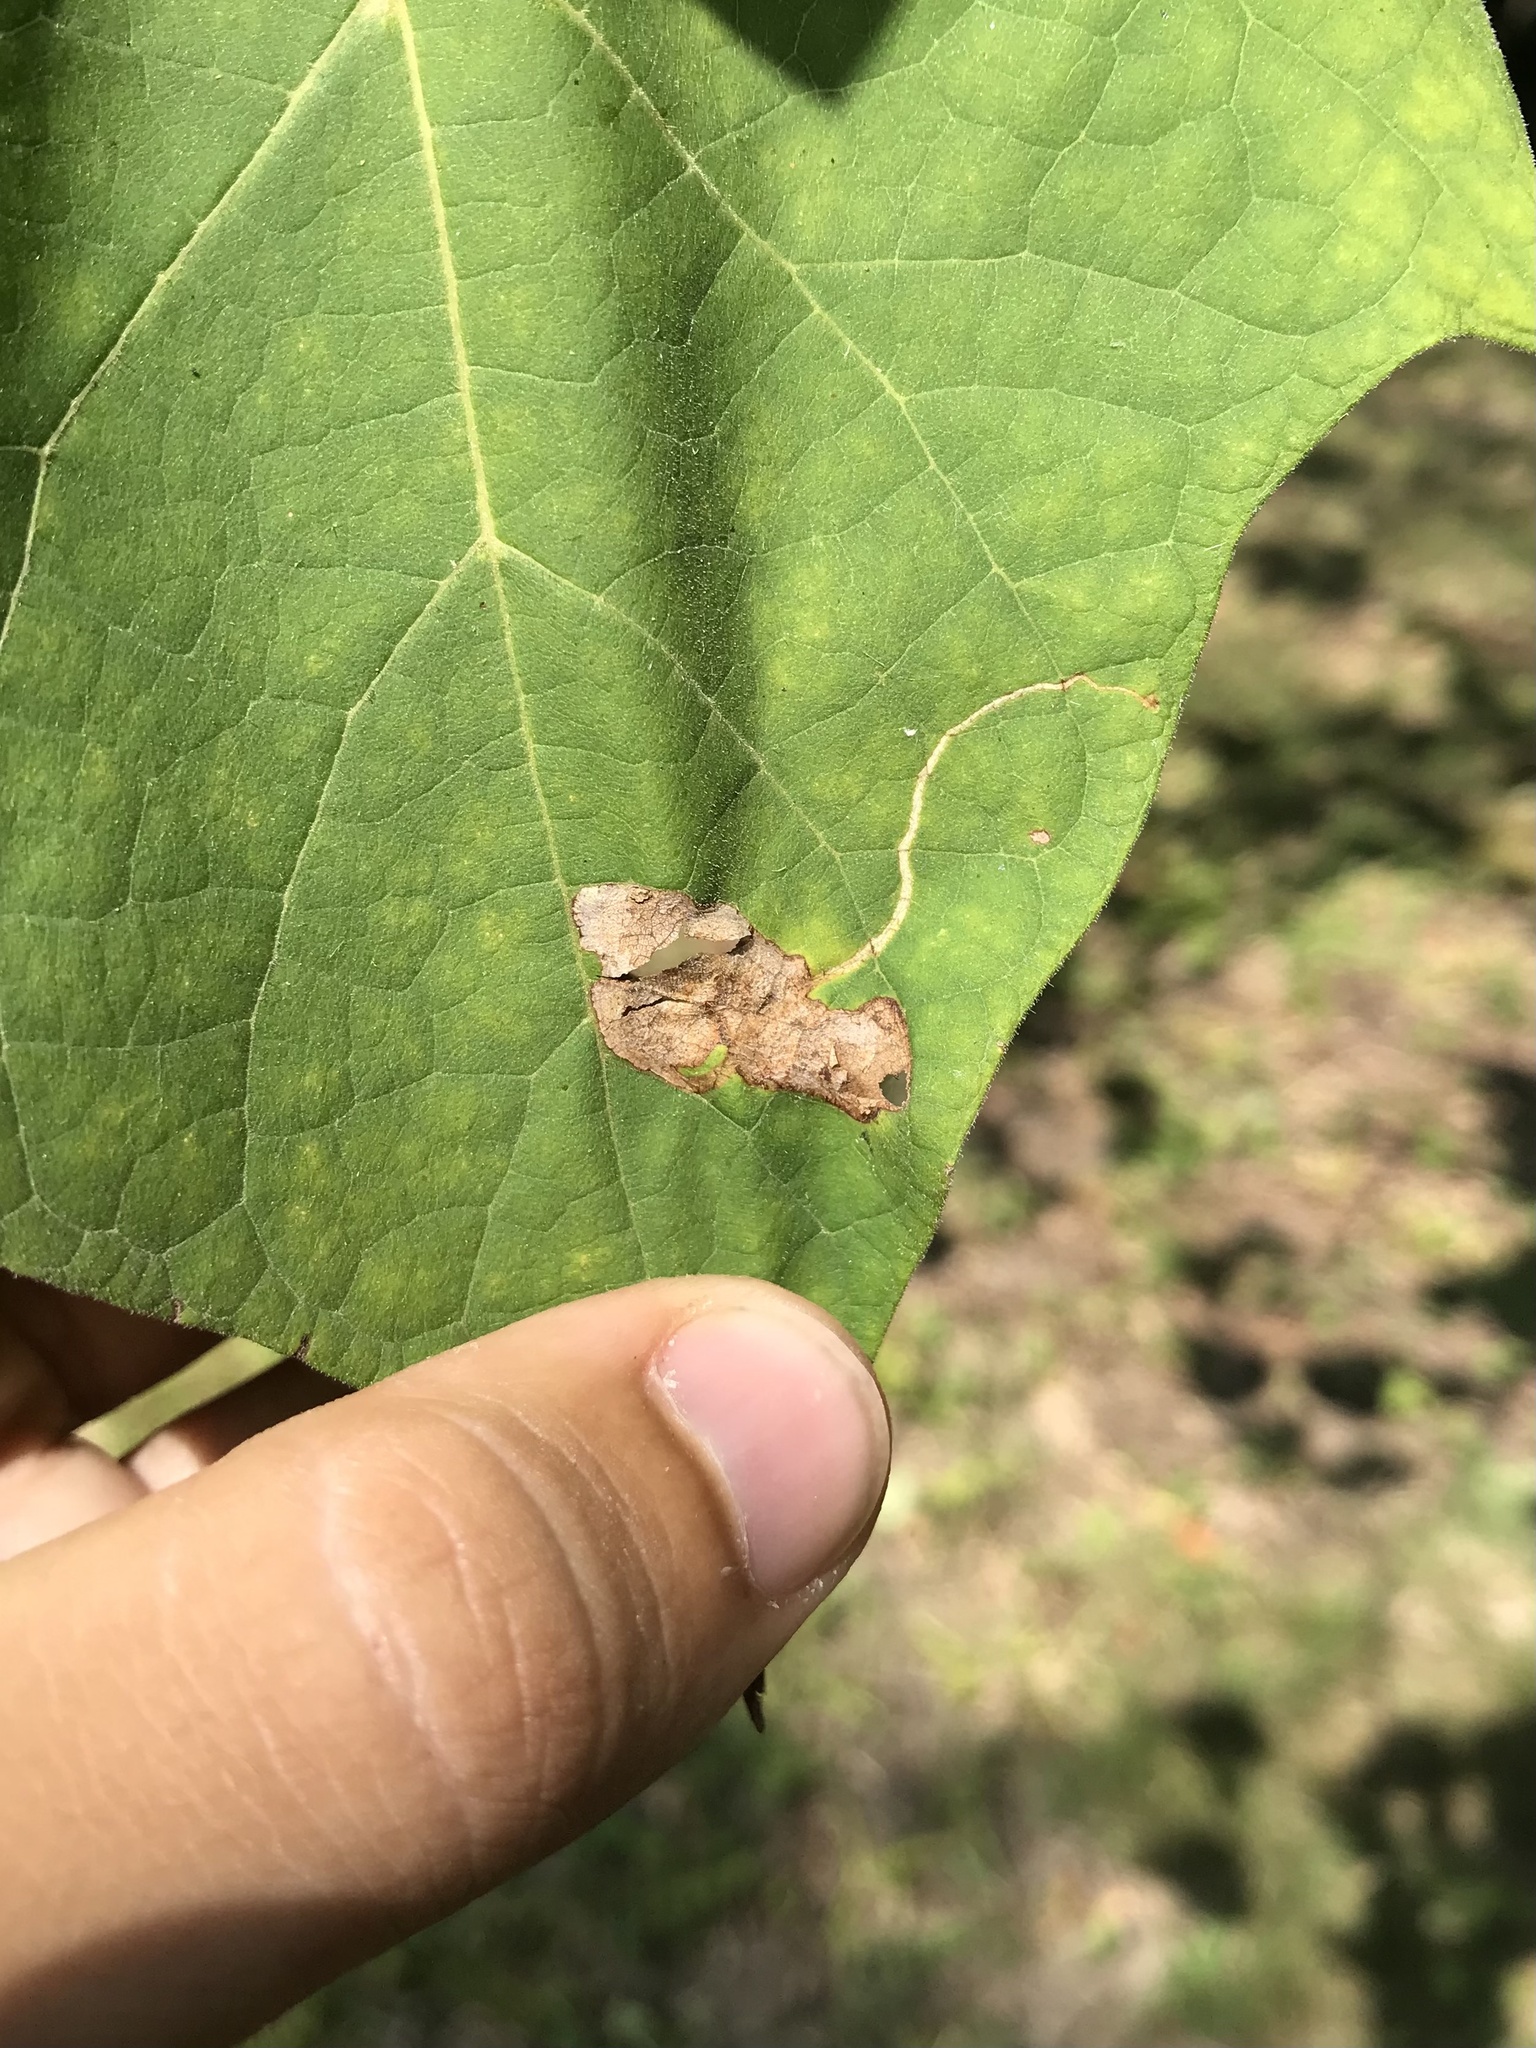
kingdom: Animalia
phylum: Arthropoda
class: Insecta
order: Diptera
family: Agromyzidae
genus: Amauromyza
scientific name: Amauromyza pleuralis
